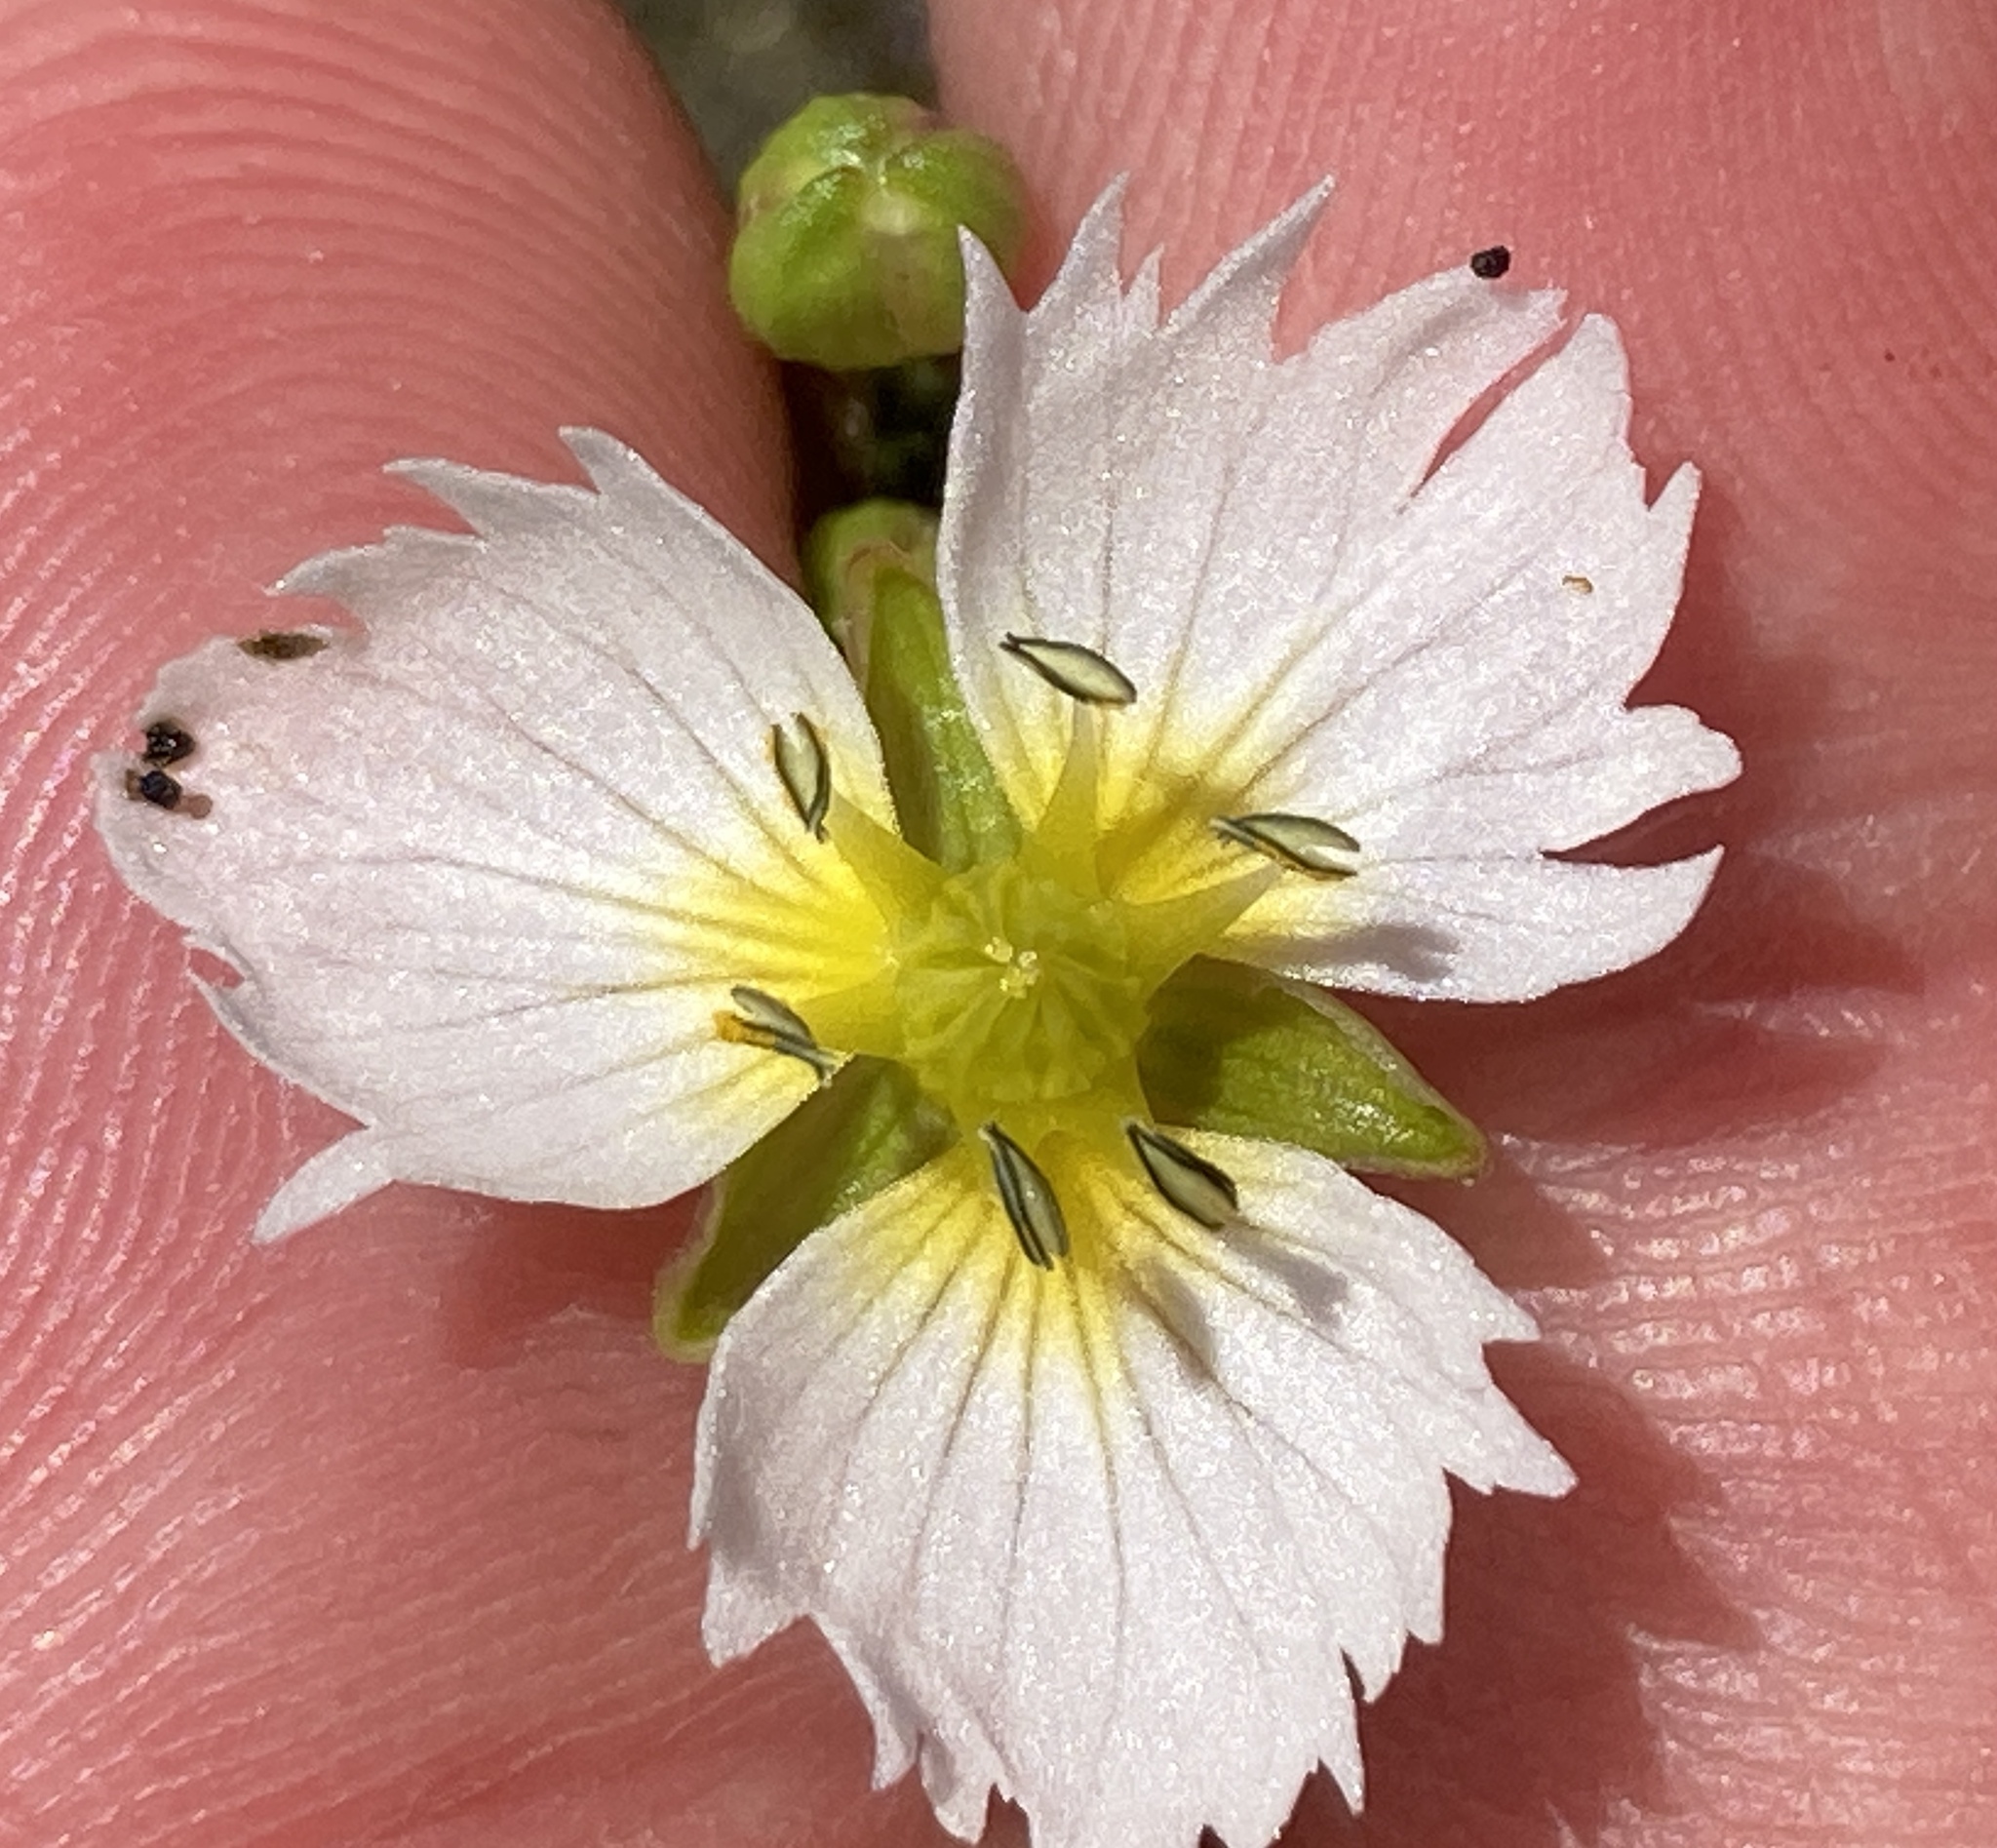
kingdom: Plantae
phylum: Tracheophyta
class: Liliopsida
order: Alismatales
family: Alismataceae
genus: Damasonium
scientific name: Damasonium californicum
